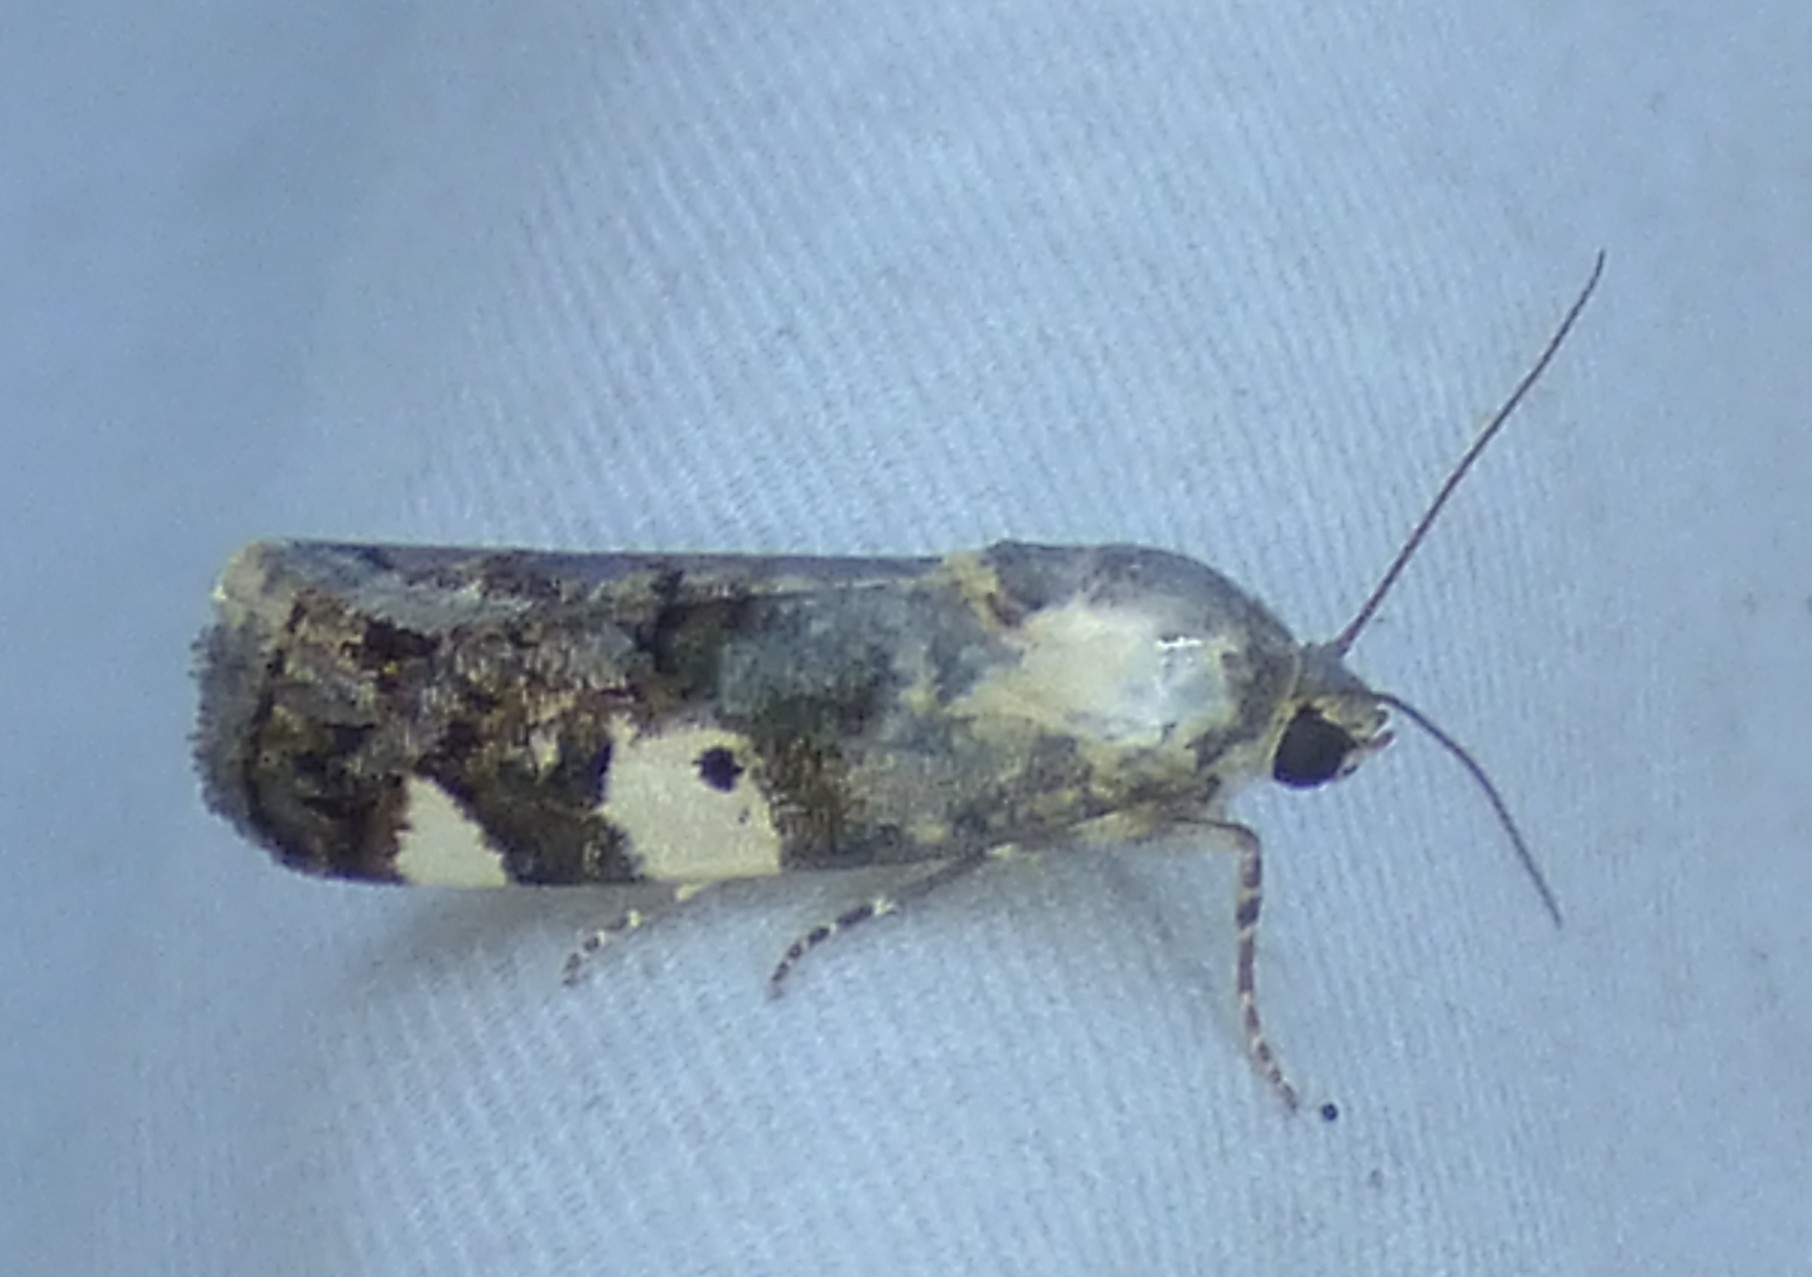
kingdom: Animalia
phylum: Arthropoda
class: Insecta
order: Lepidoptera
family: Noctuidae
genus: Acontia
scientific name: Acontia aprica
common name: Nun
